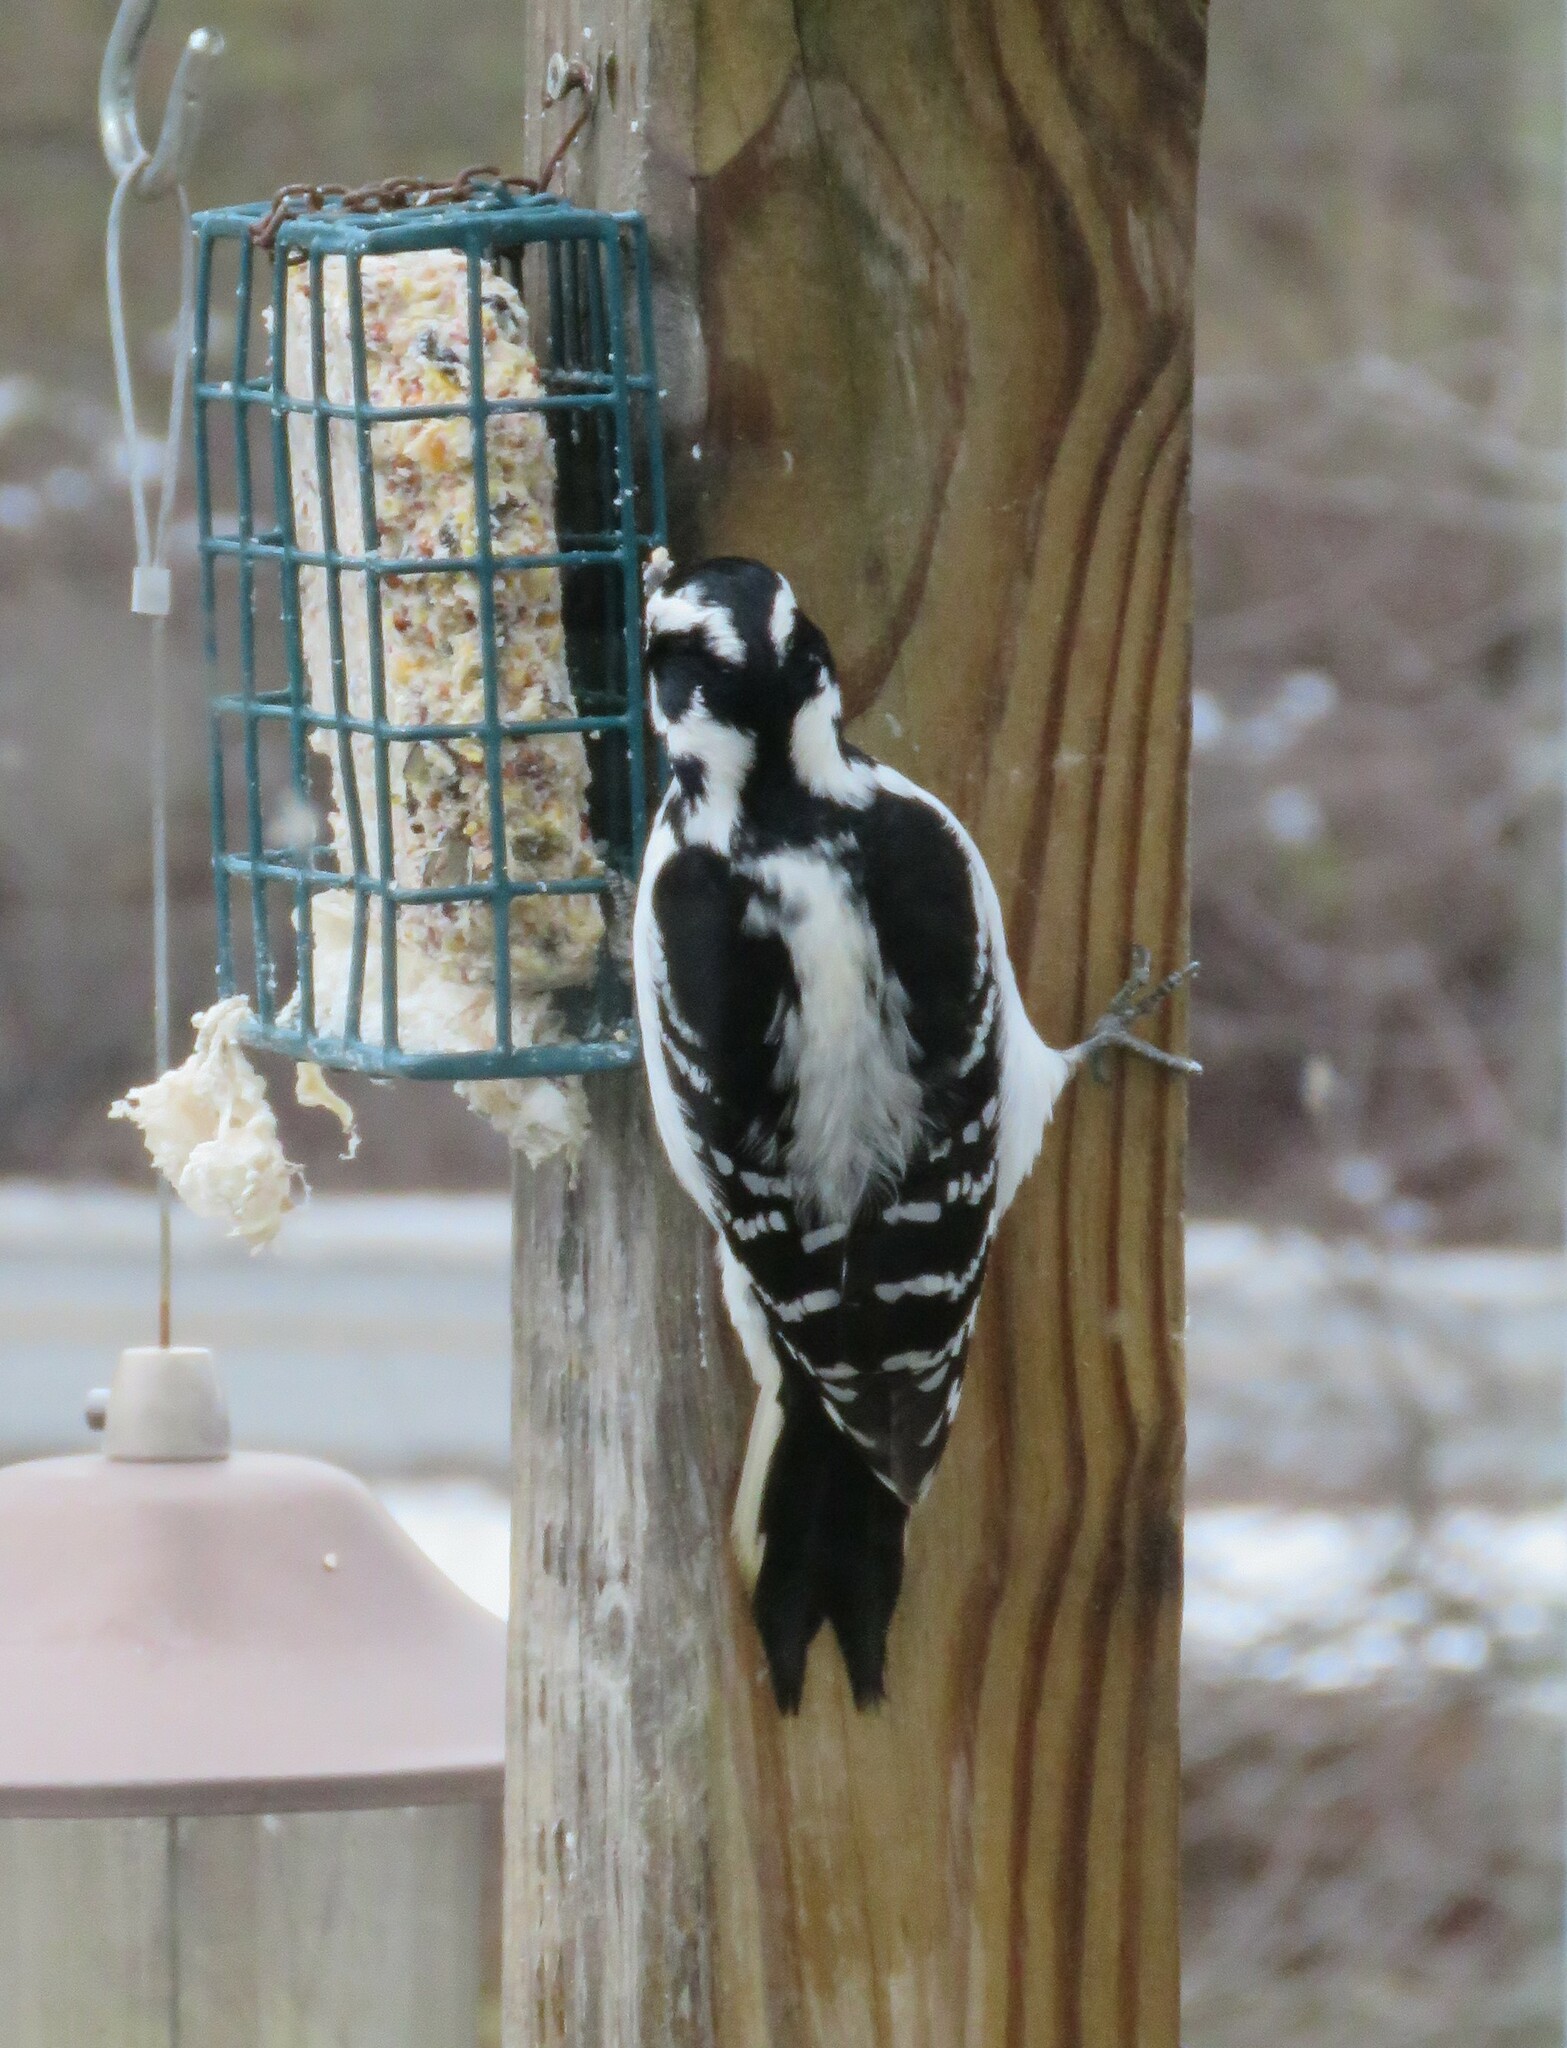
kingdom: Animalia
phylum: Chordata
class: Aves
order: Piciformes
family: Picidae
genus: Leuconotopicus
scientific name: Leuconotopicus villosus
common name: Hairy woodpecker
